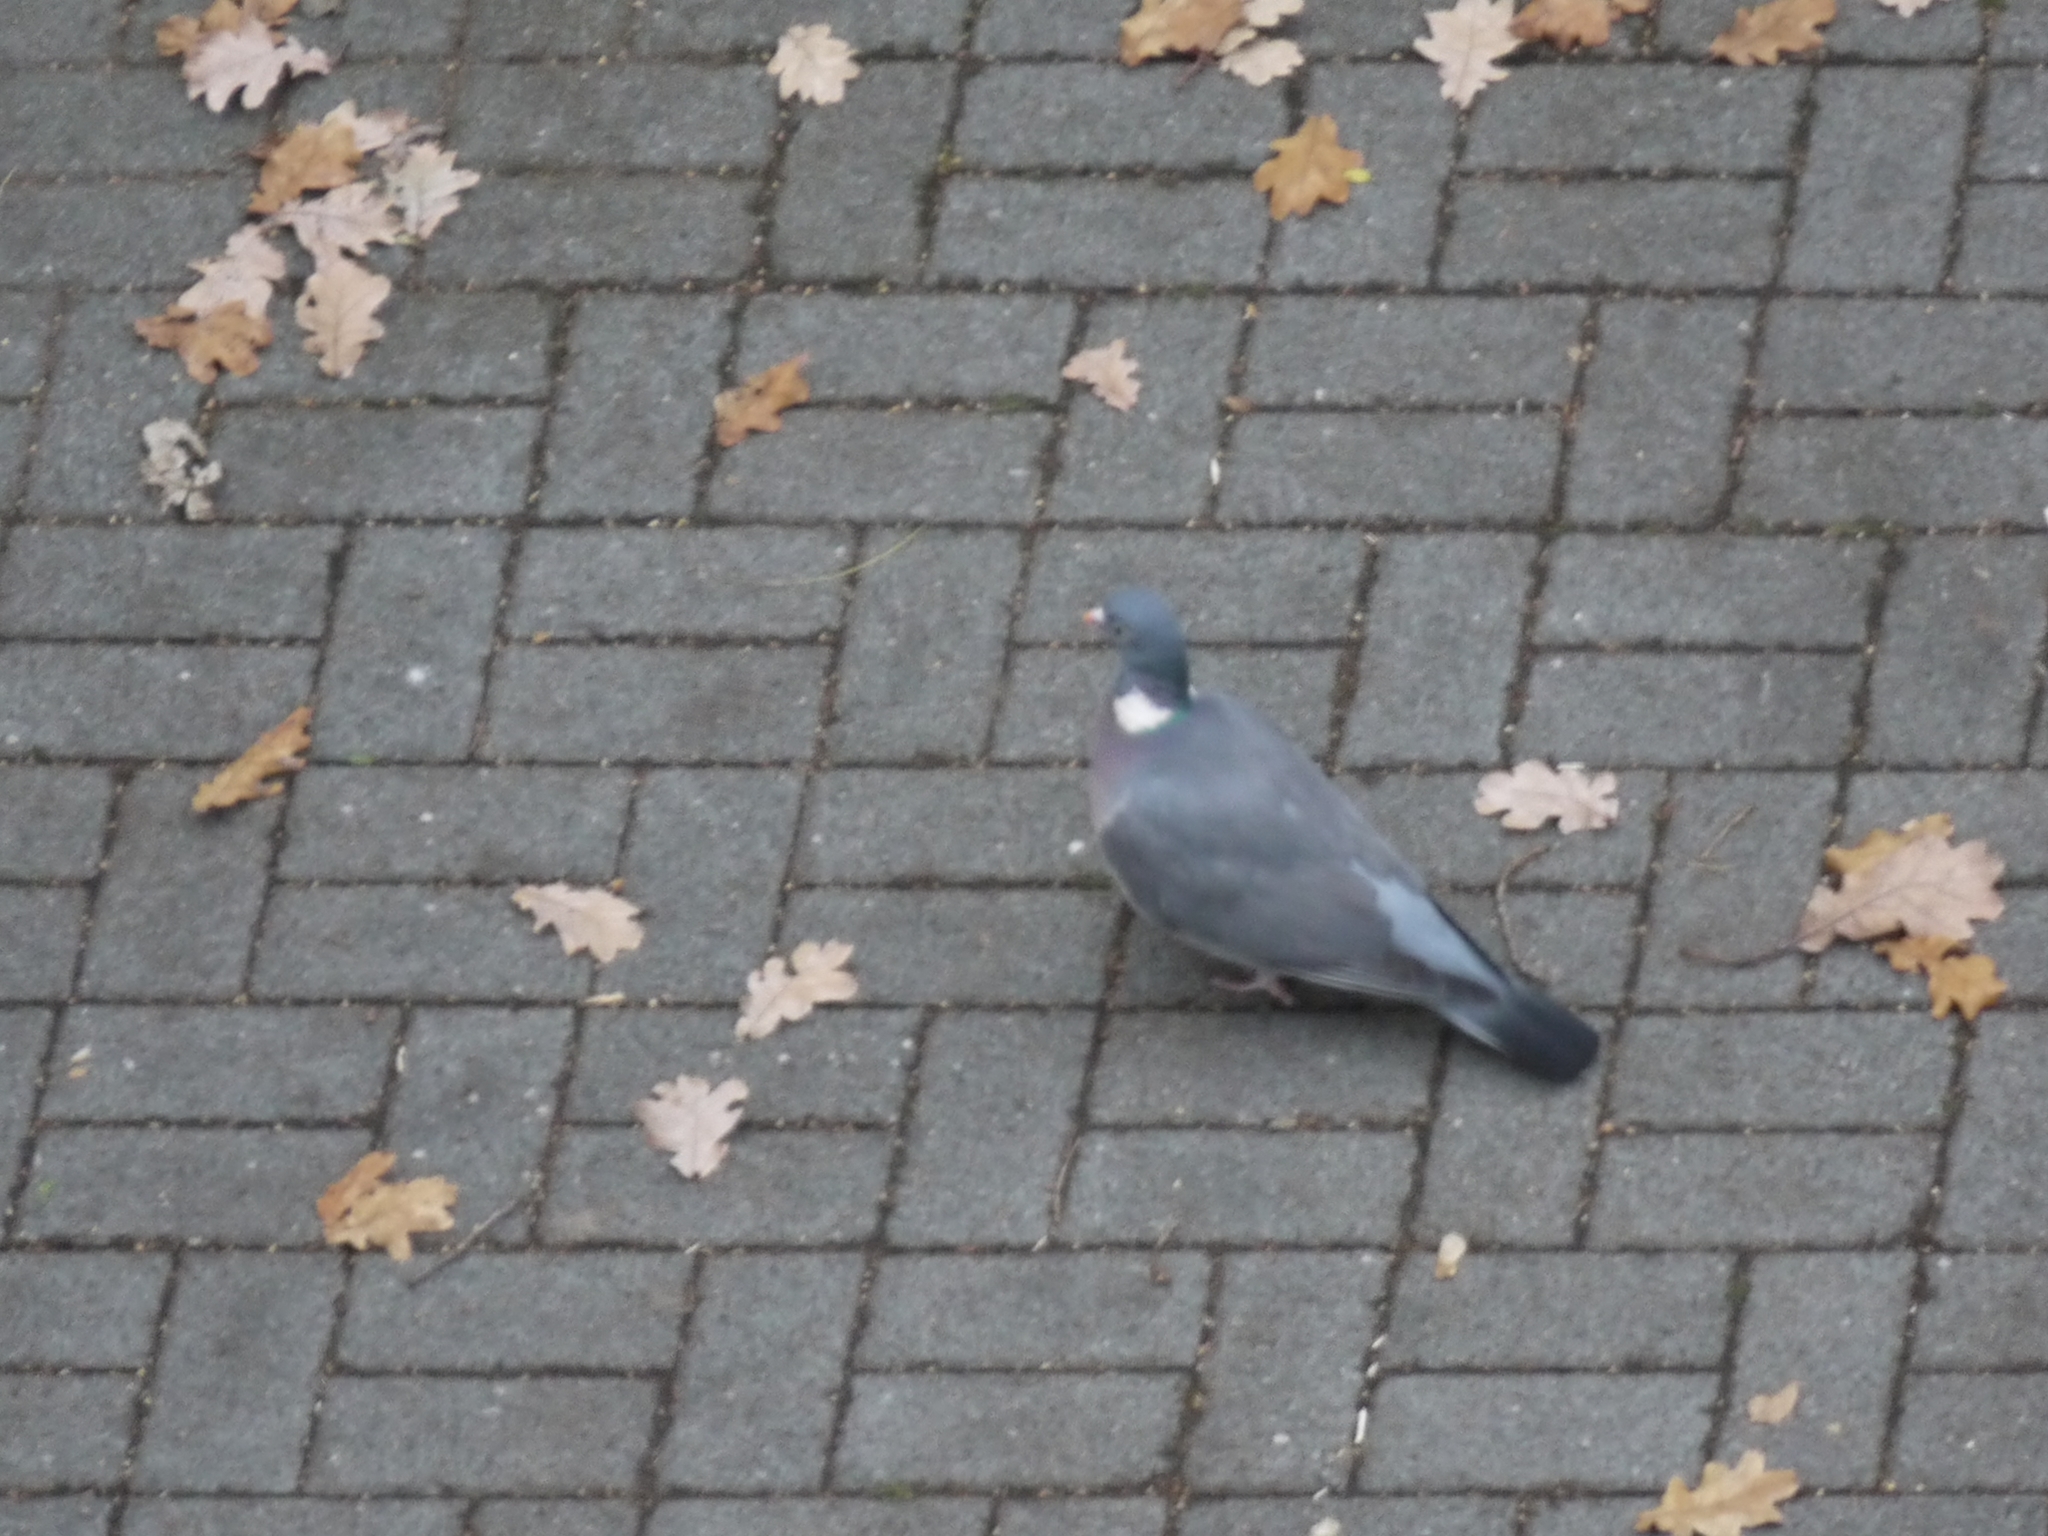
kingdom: Animalia
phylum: Chordata
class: Aves
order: Columbiformes
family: Columbidae
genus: Columba
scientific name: Columba palumbus
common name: Common wood pigeon
